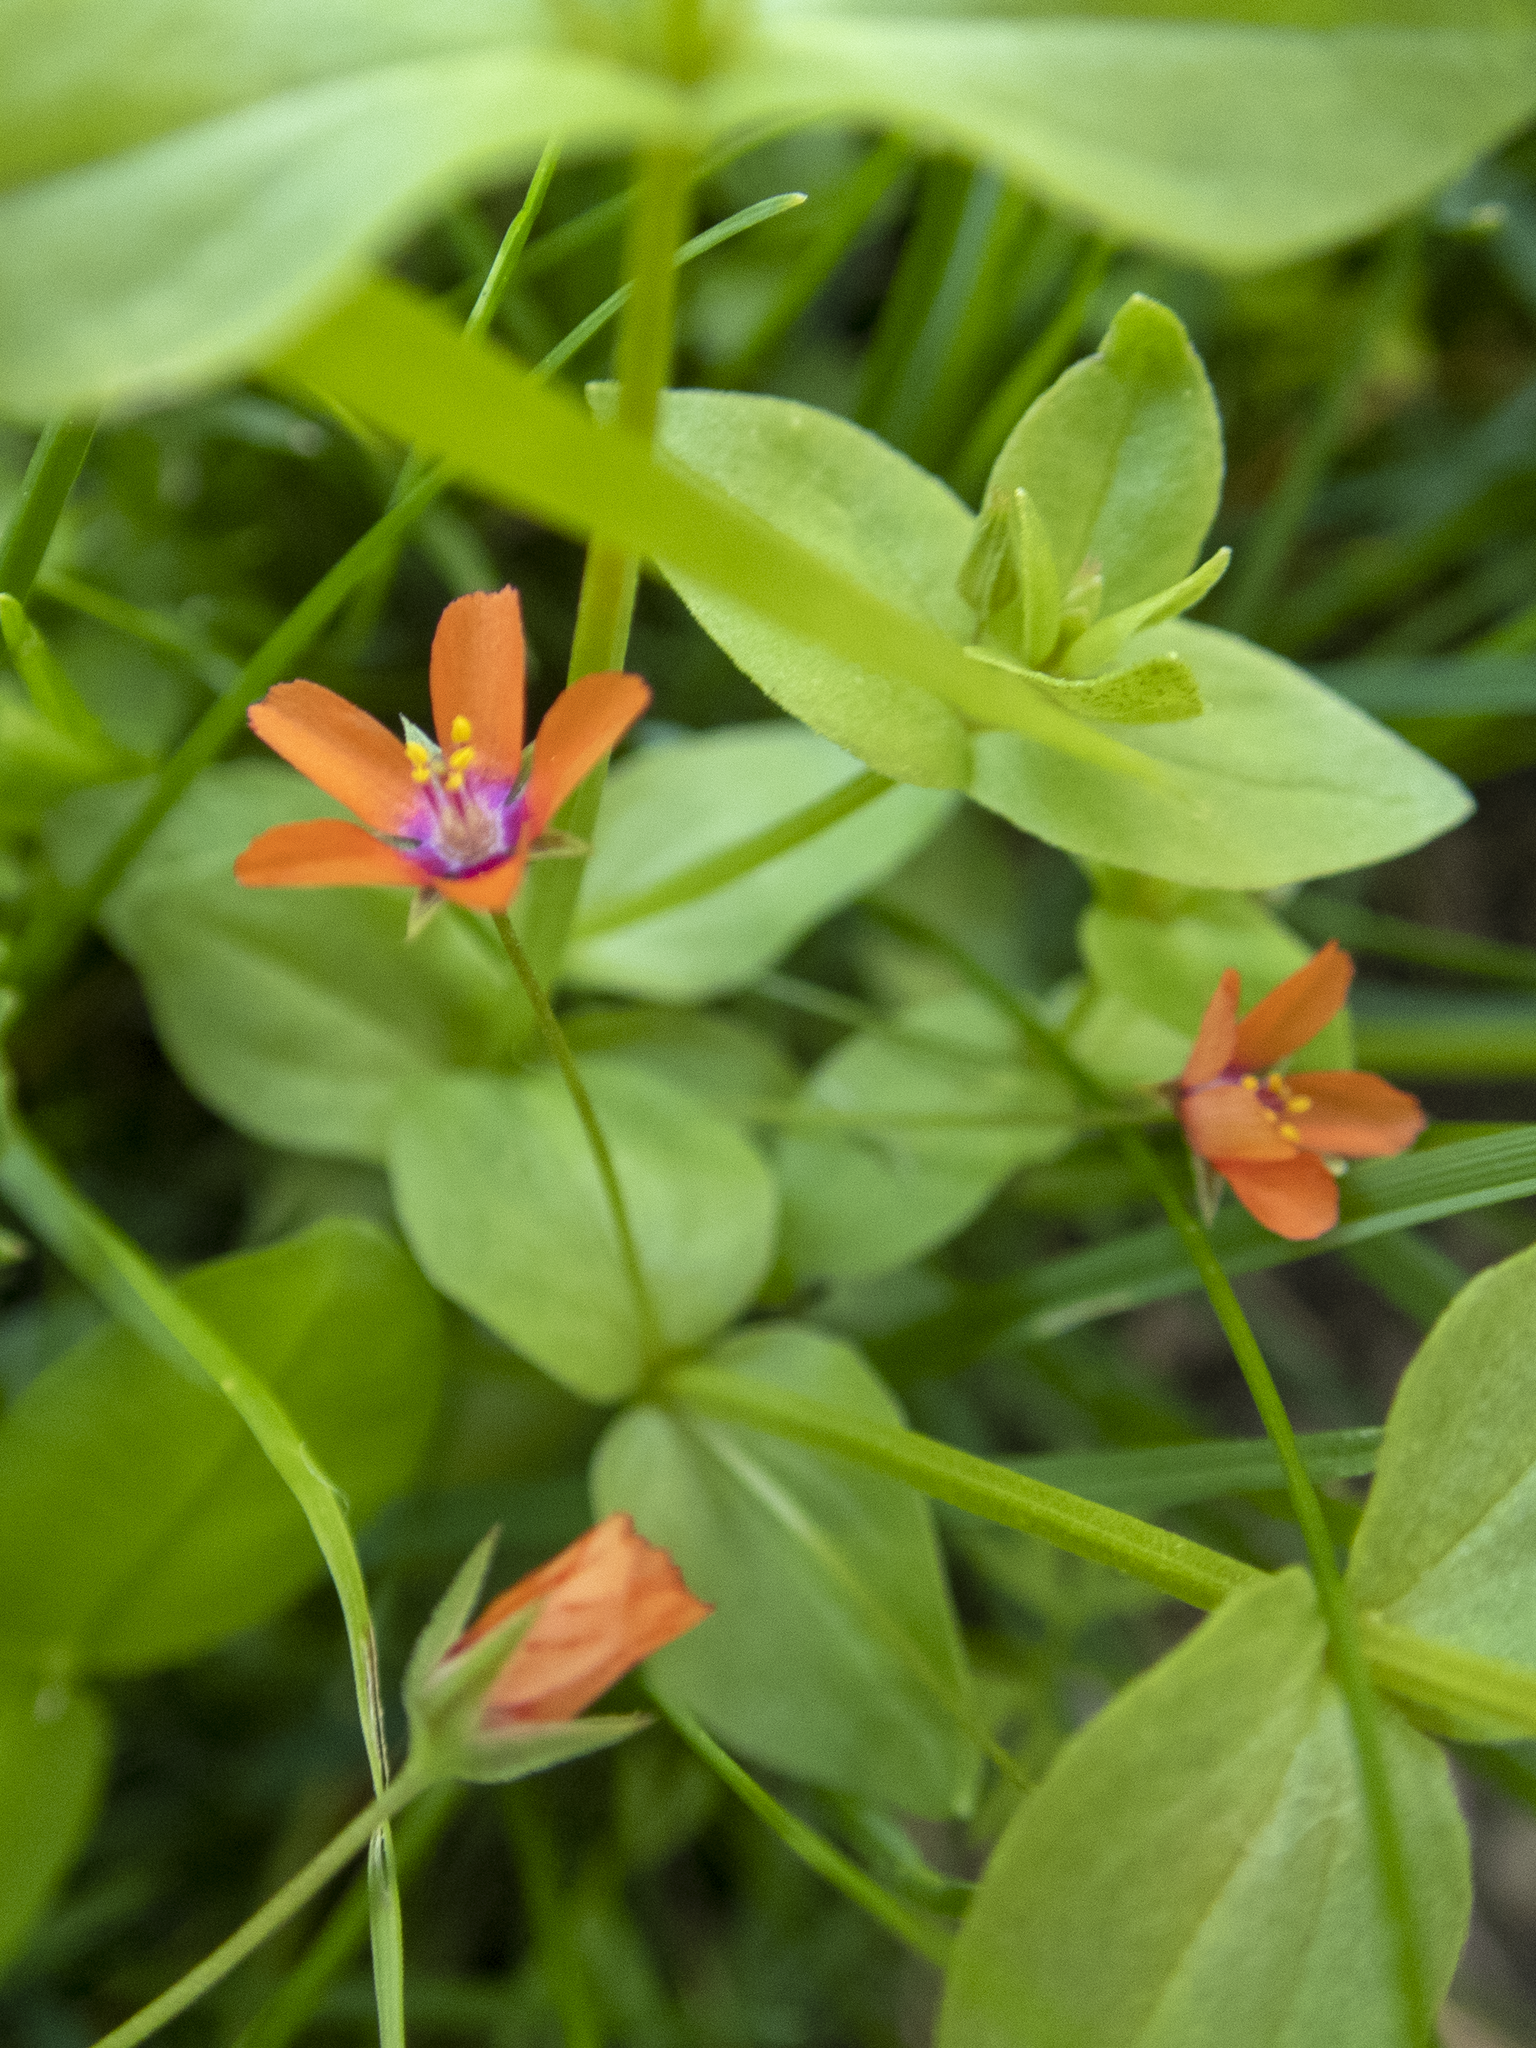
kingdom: Plantae
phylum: Tracheophyta
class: Magnoliopsida
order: Ericales
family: Primulaceae
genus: Lysimachia
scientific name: Lysimachia arvensis
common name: Scarlet pimpernel
